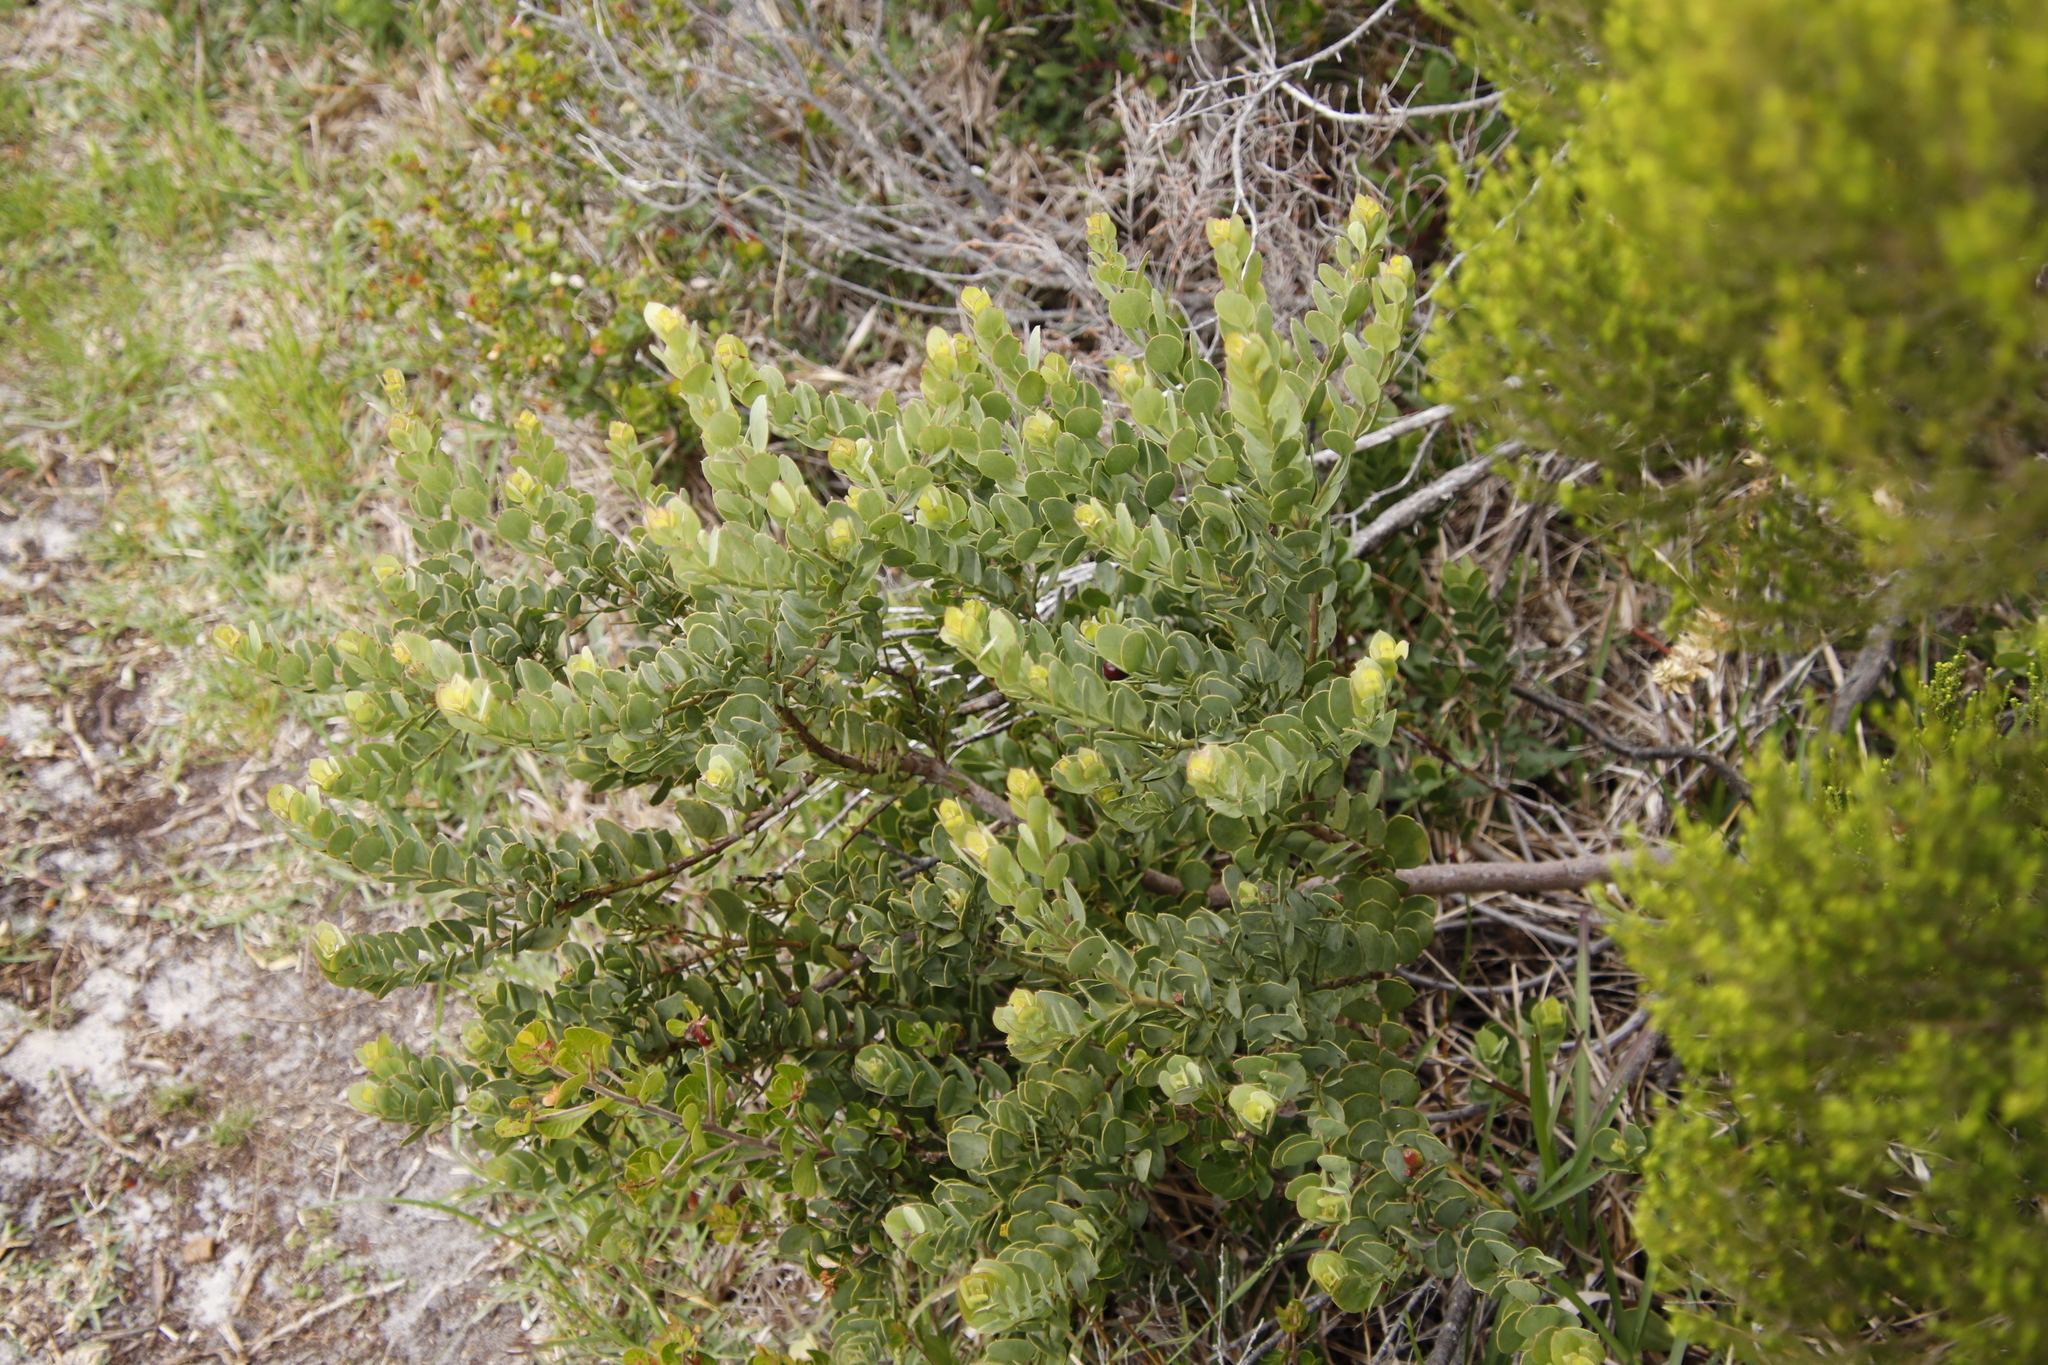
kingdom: Plantae
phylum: Tracheophyta
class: Magnoliopsida
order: Santalales
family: Santalaceae
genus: Osyris
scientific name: Osyris compressa
